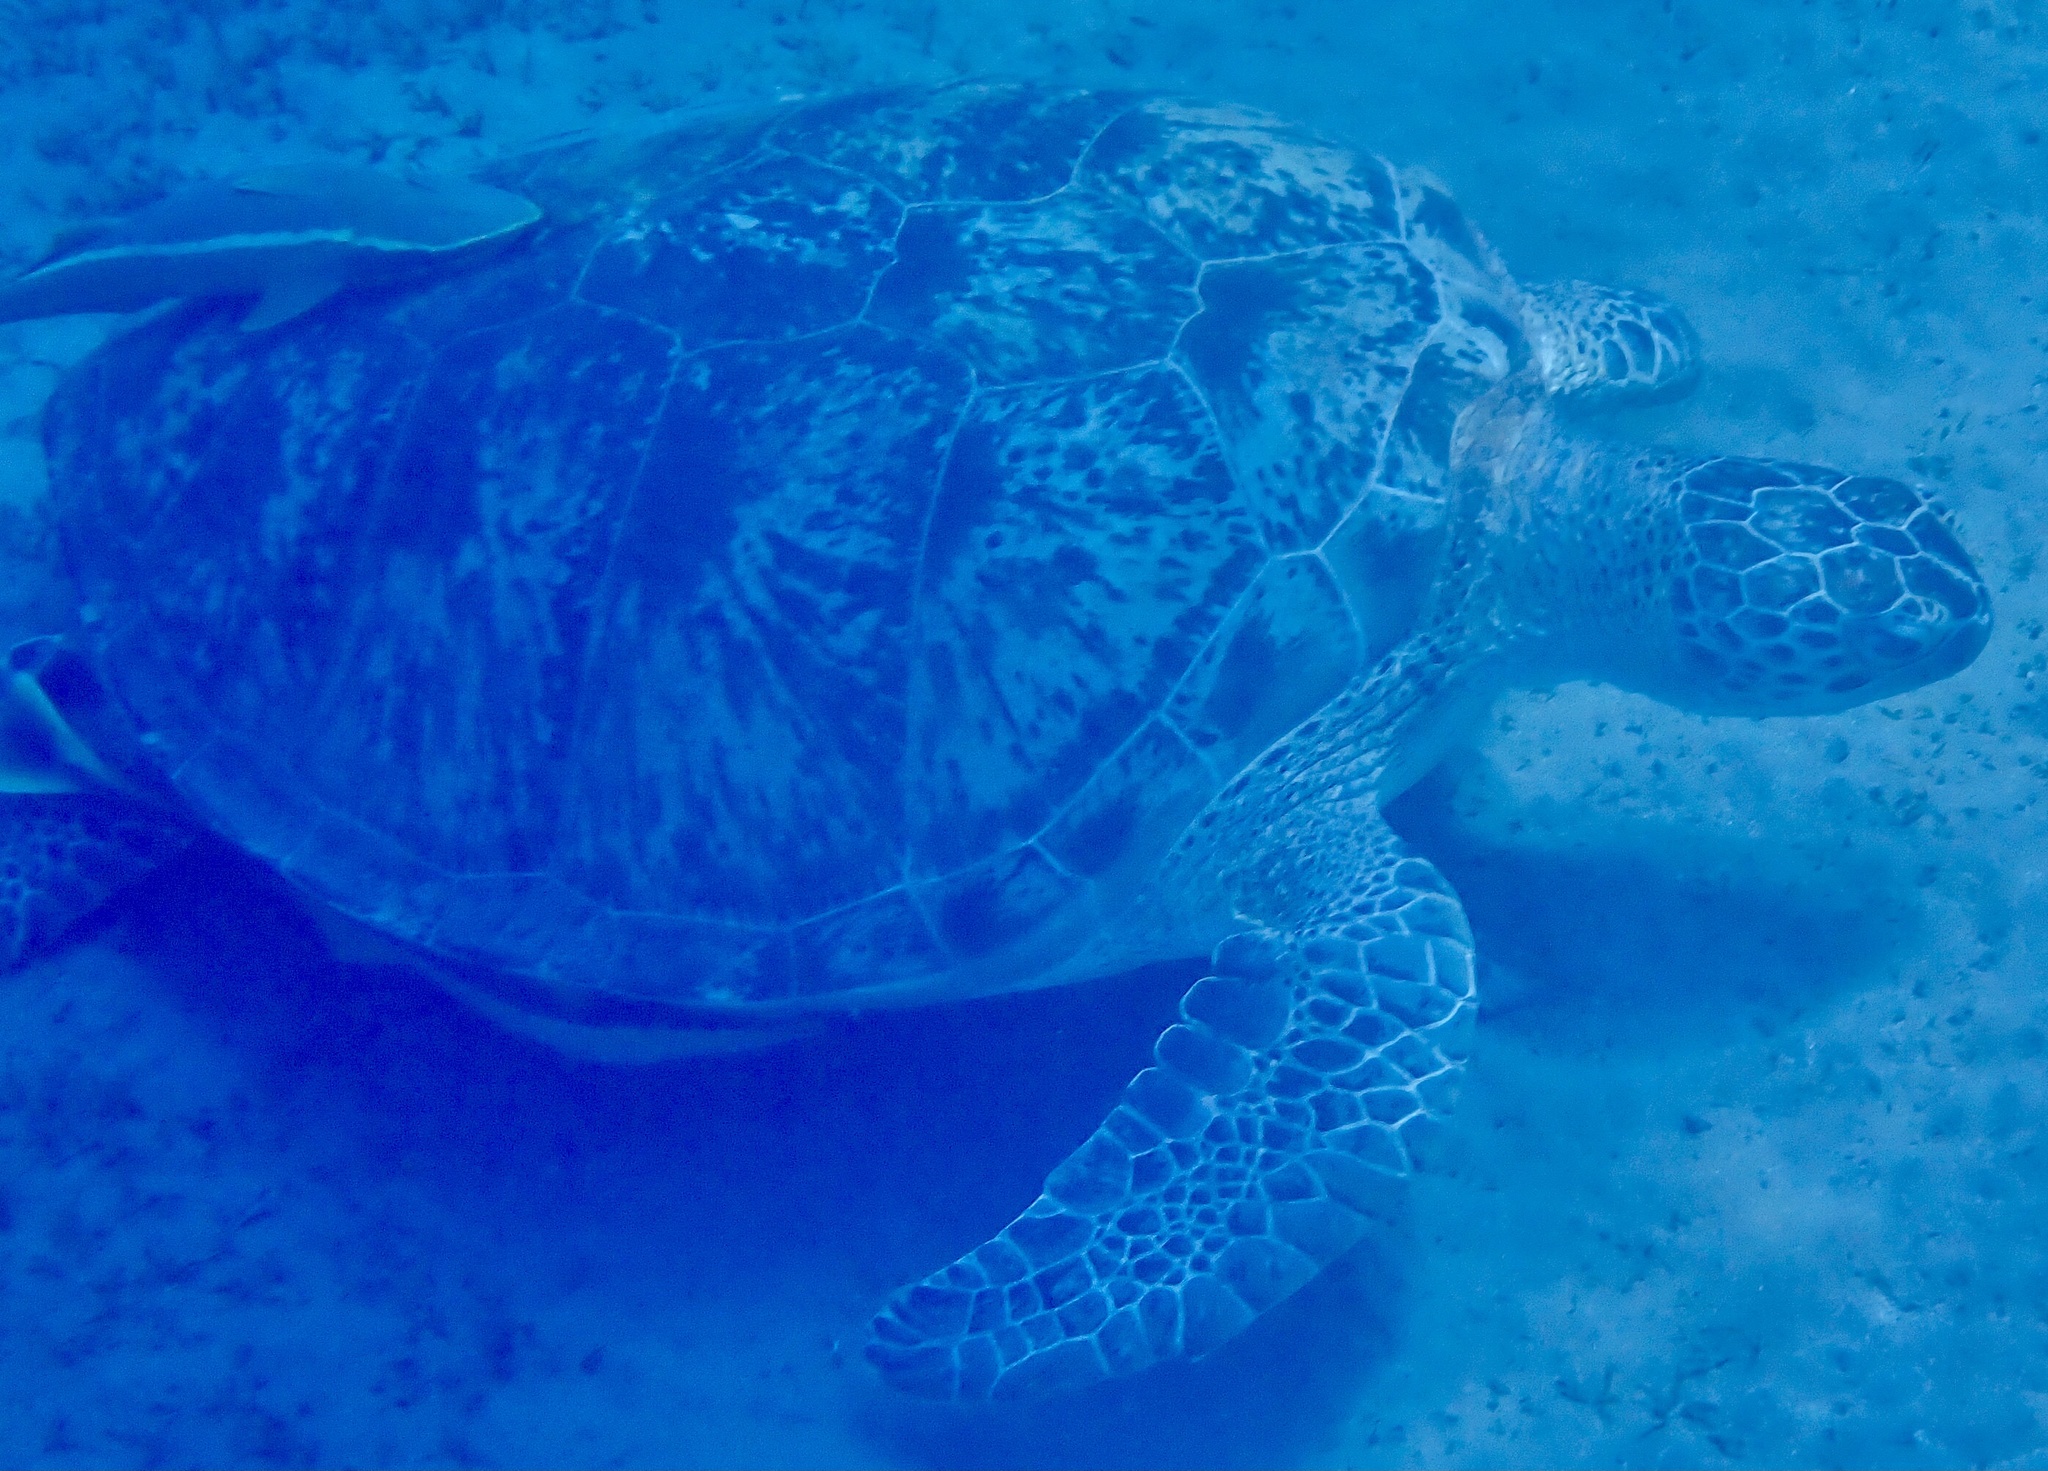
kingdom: Animalia
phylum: Chordata
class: Testudines
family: Cheloniidae
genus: Chelonia
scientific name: Chelonia mydas
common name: Green turtle
